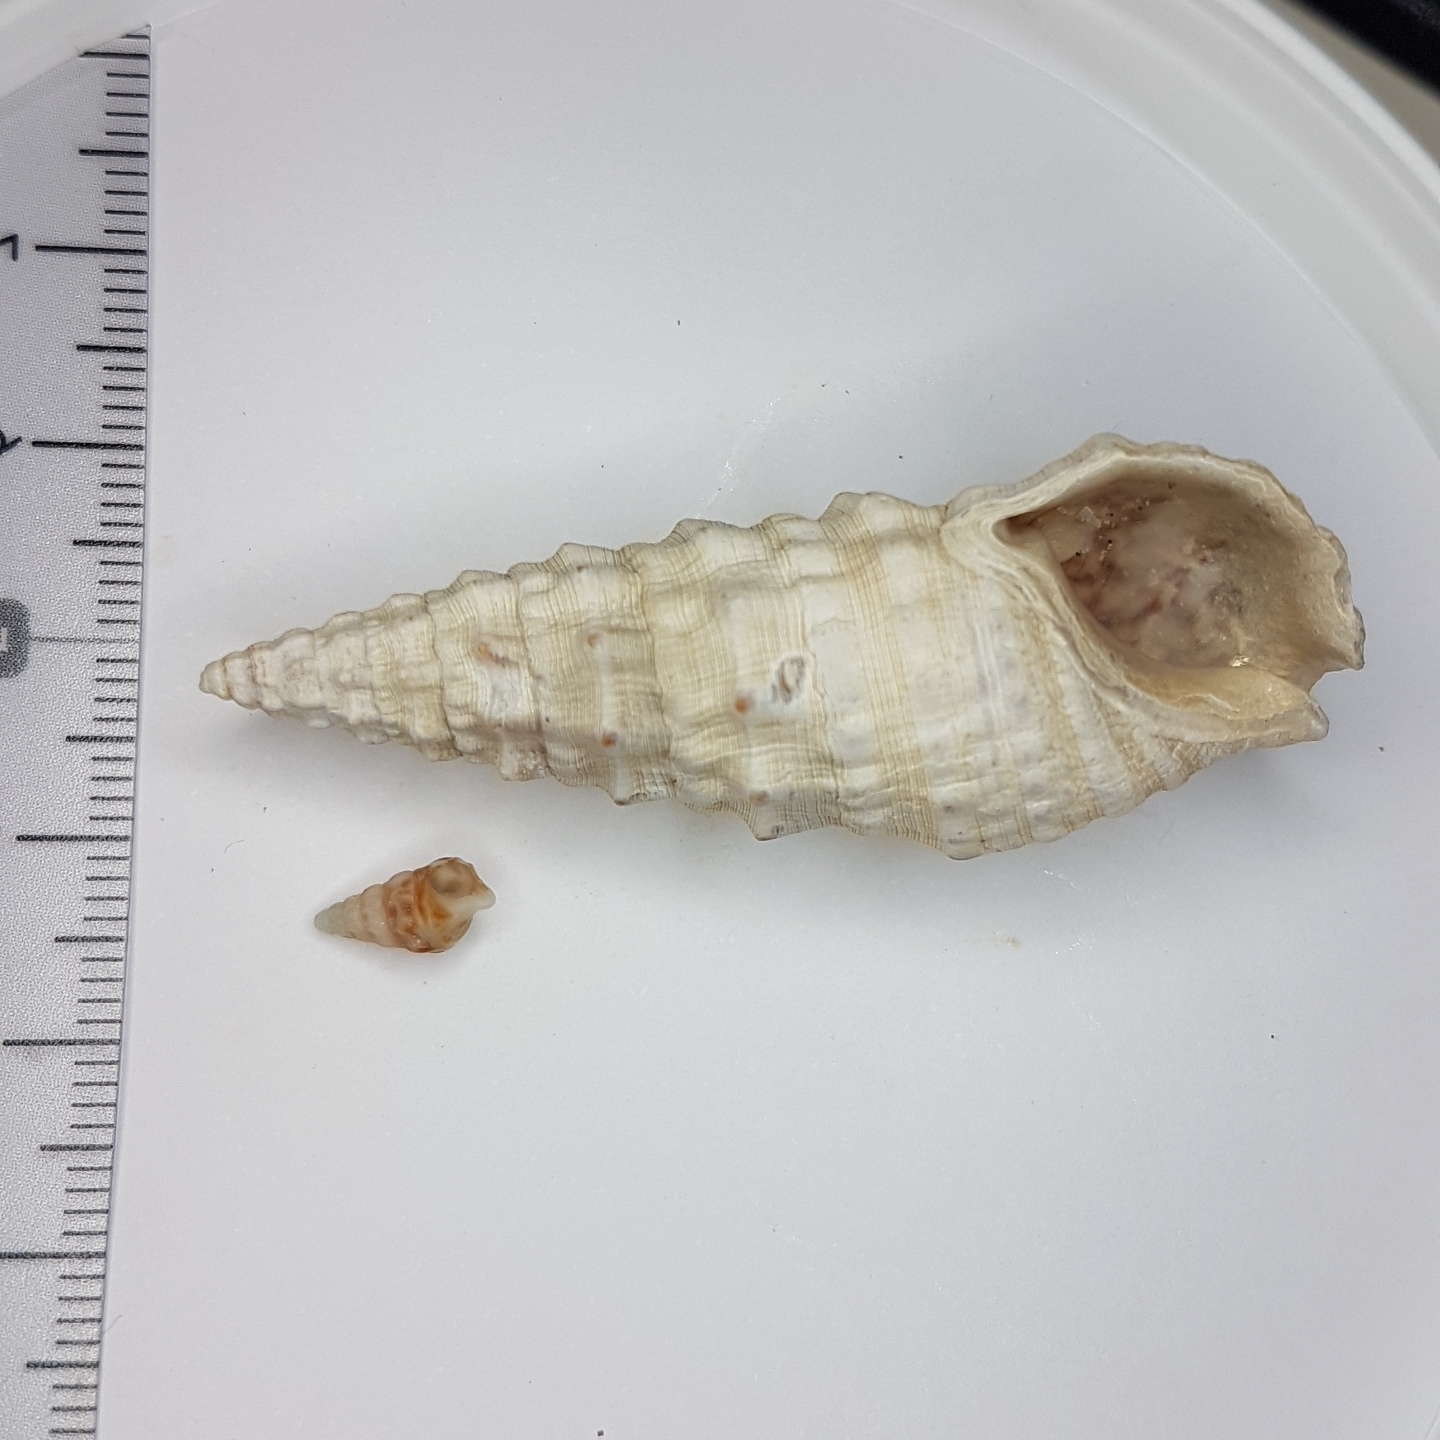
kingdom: Animalia
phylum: Mollusca
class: Gastropoda
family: Cerithiidae
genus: Cerithium
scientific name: Cerithium vulgatum
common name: European cerith
